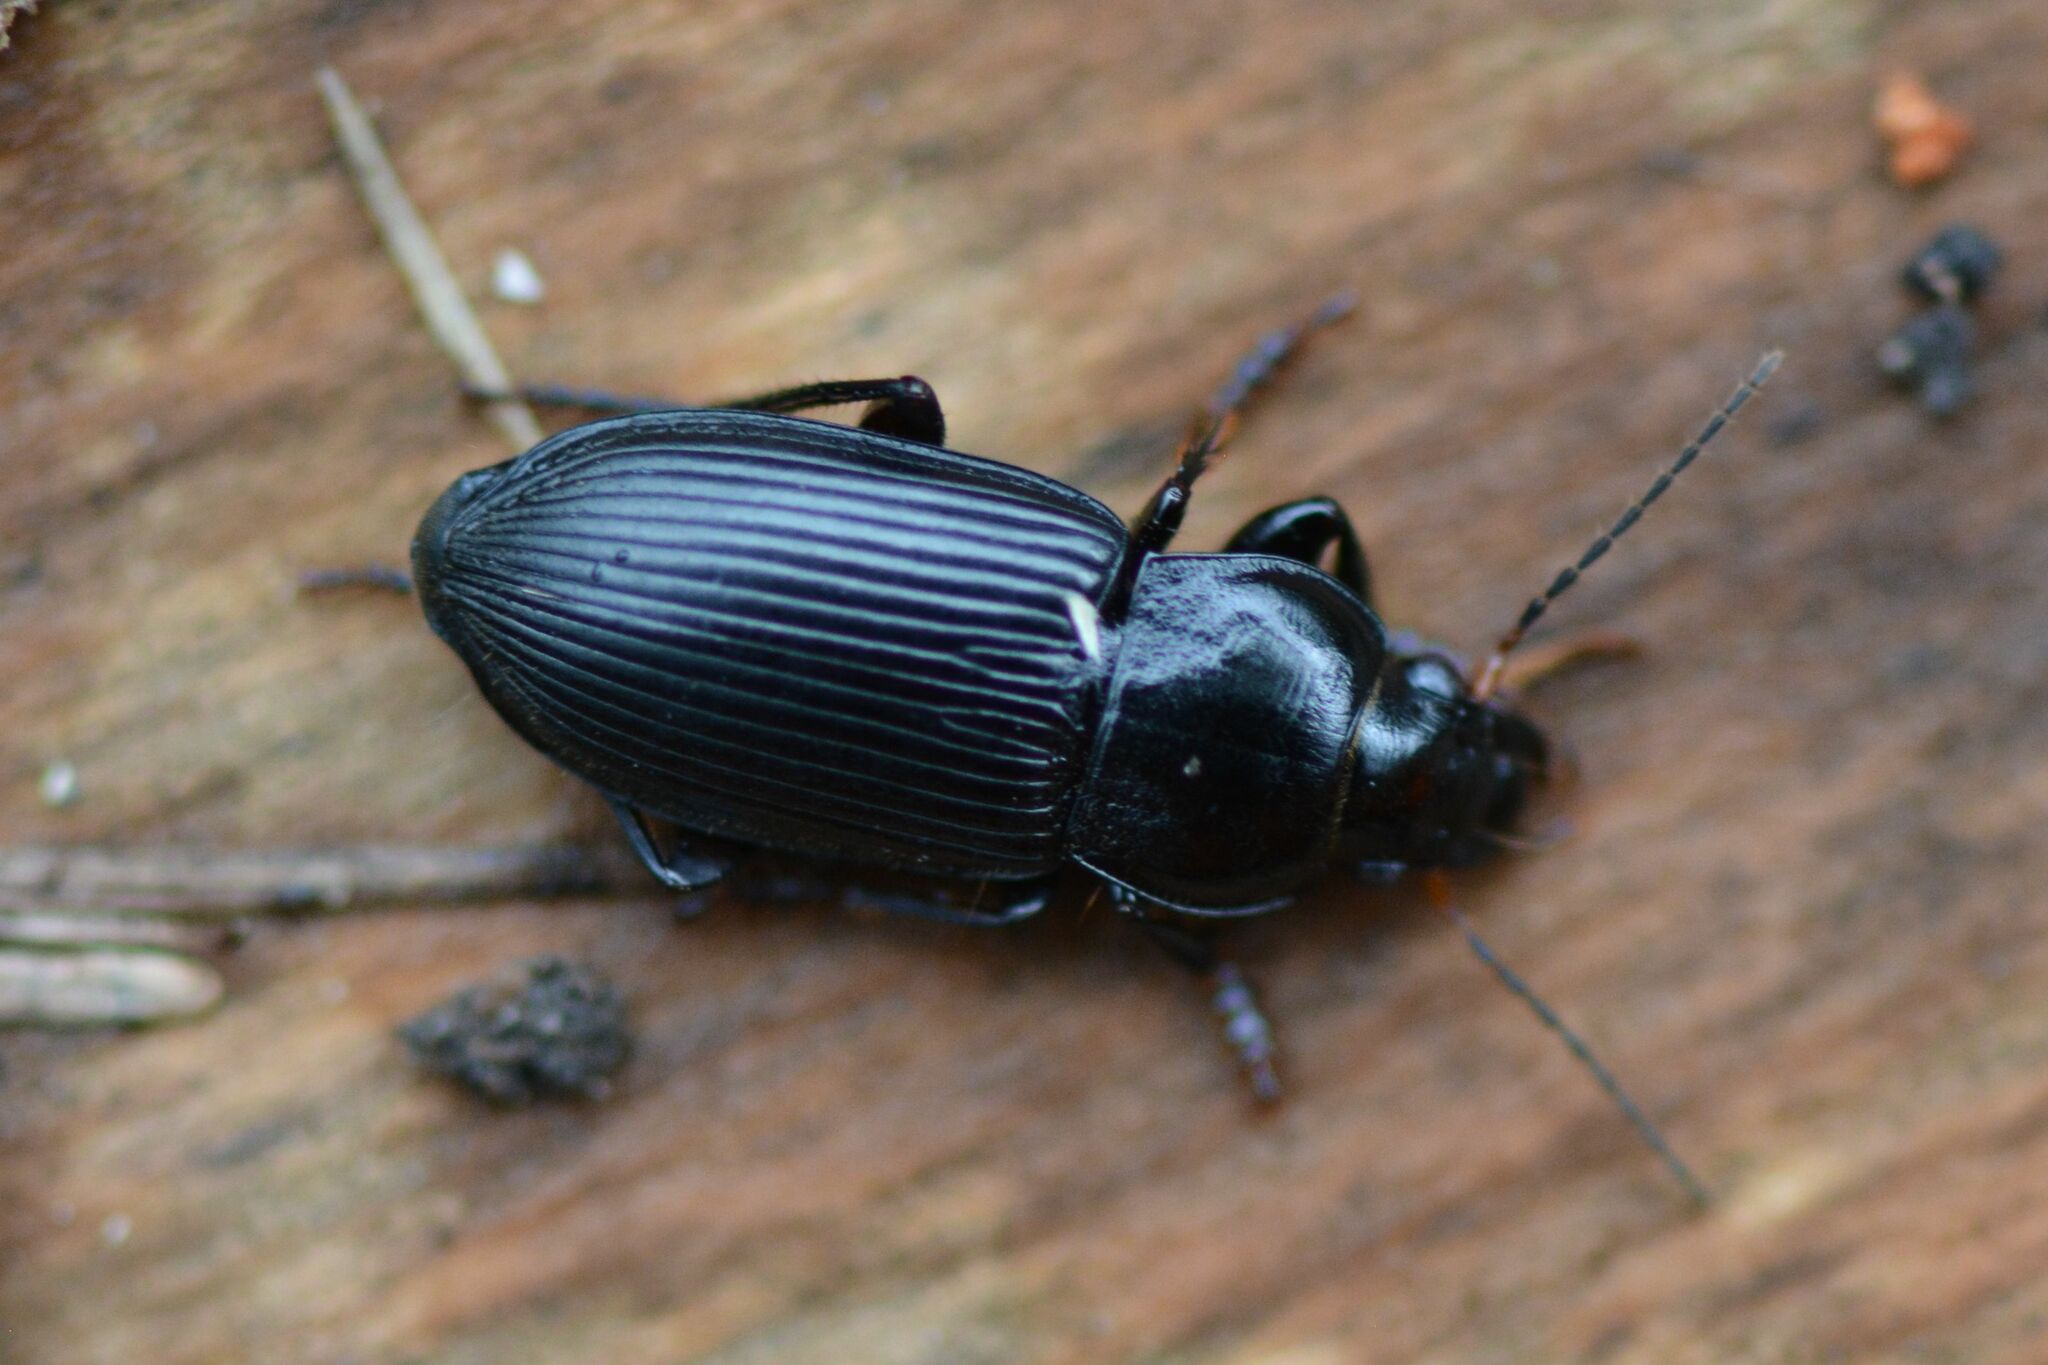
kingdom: Animalia
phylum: Arthropoda
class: Insecta
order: Coleoptera
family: Carabidae
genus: Anisodactylus
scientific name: Anisodactylus binotatus
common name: Two-marked harp ground beetle
